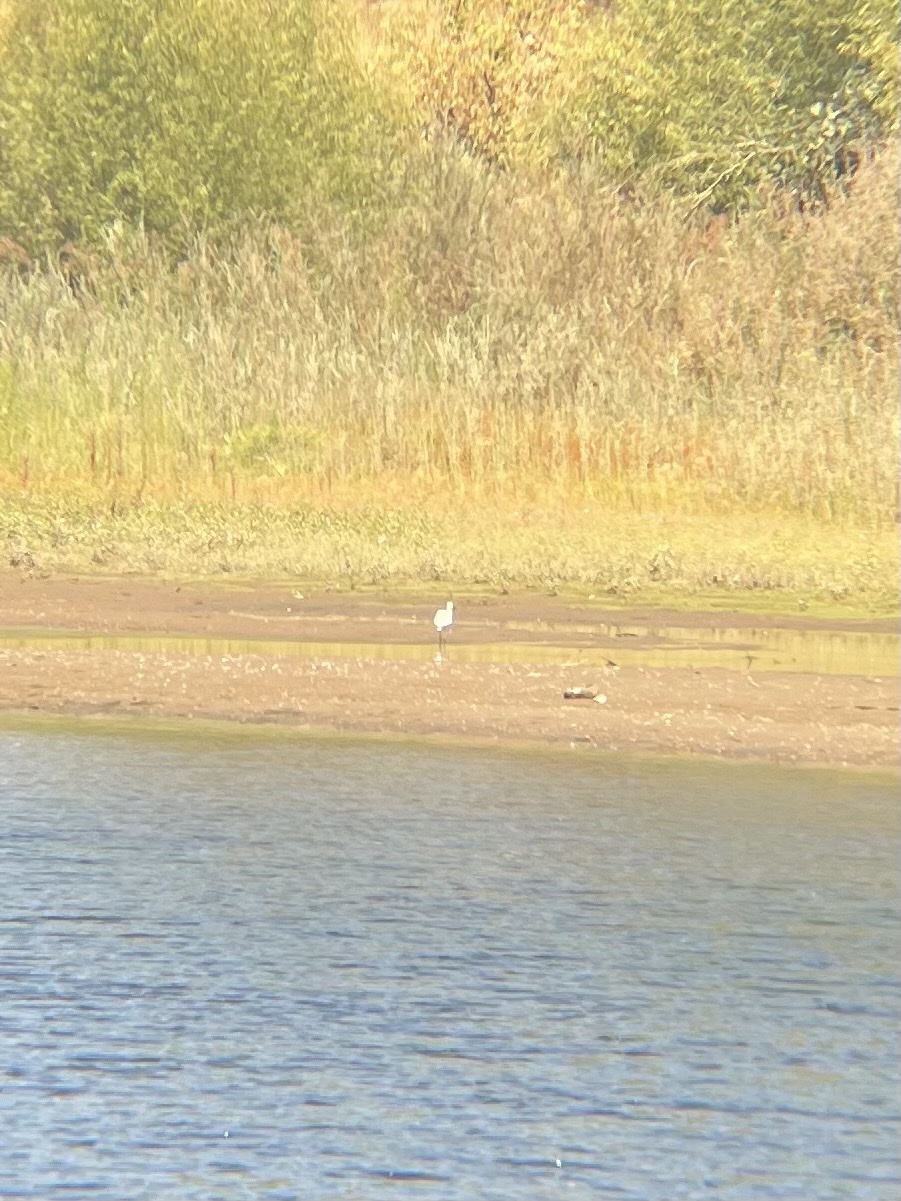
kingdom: Animalia
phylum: Chordata
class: Aves
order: Pelecaniformes
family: Ardeidae
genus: Egretta
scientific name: Egretta thula
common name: Snowy egret
